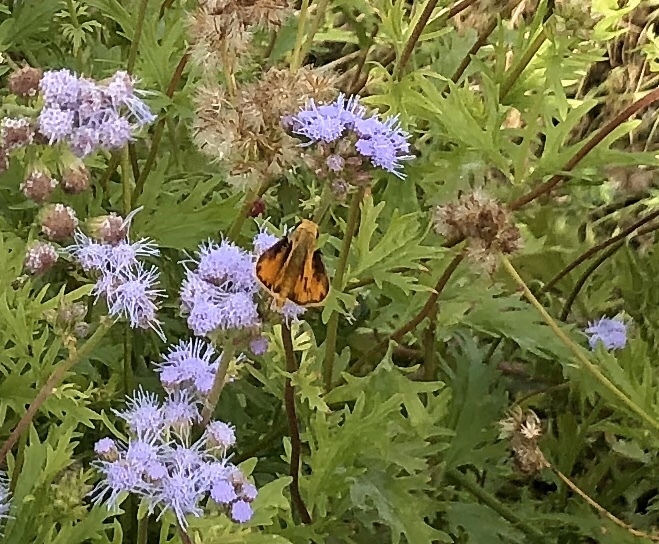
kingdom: Animalia
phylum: Arthropoda
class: Insecta
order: Lepidoptera
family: Hesperiidae
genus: Hylephila
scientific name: Hylephila phyleus
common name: Fiery skipper
